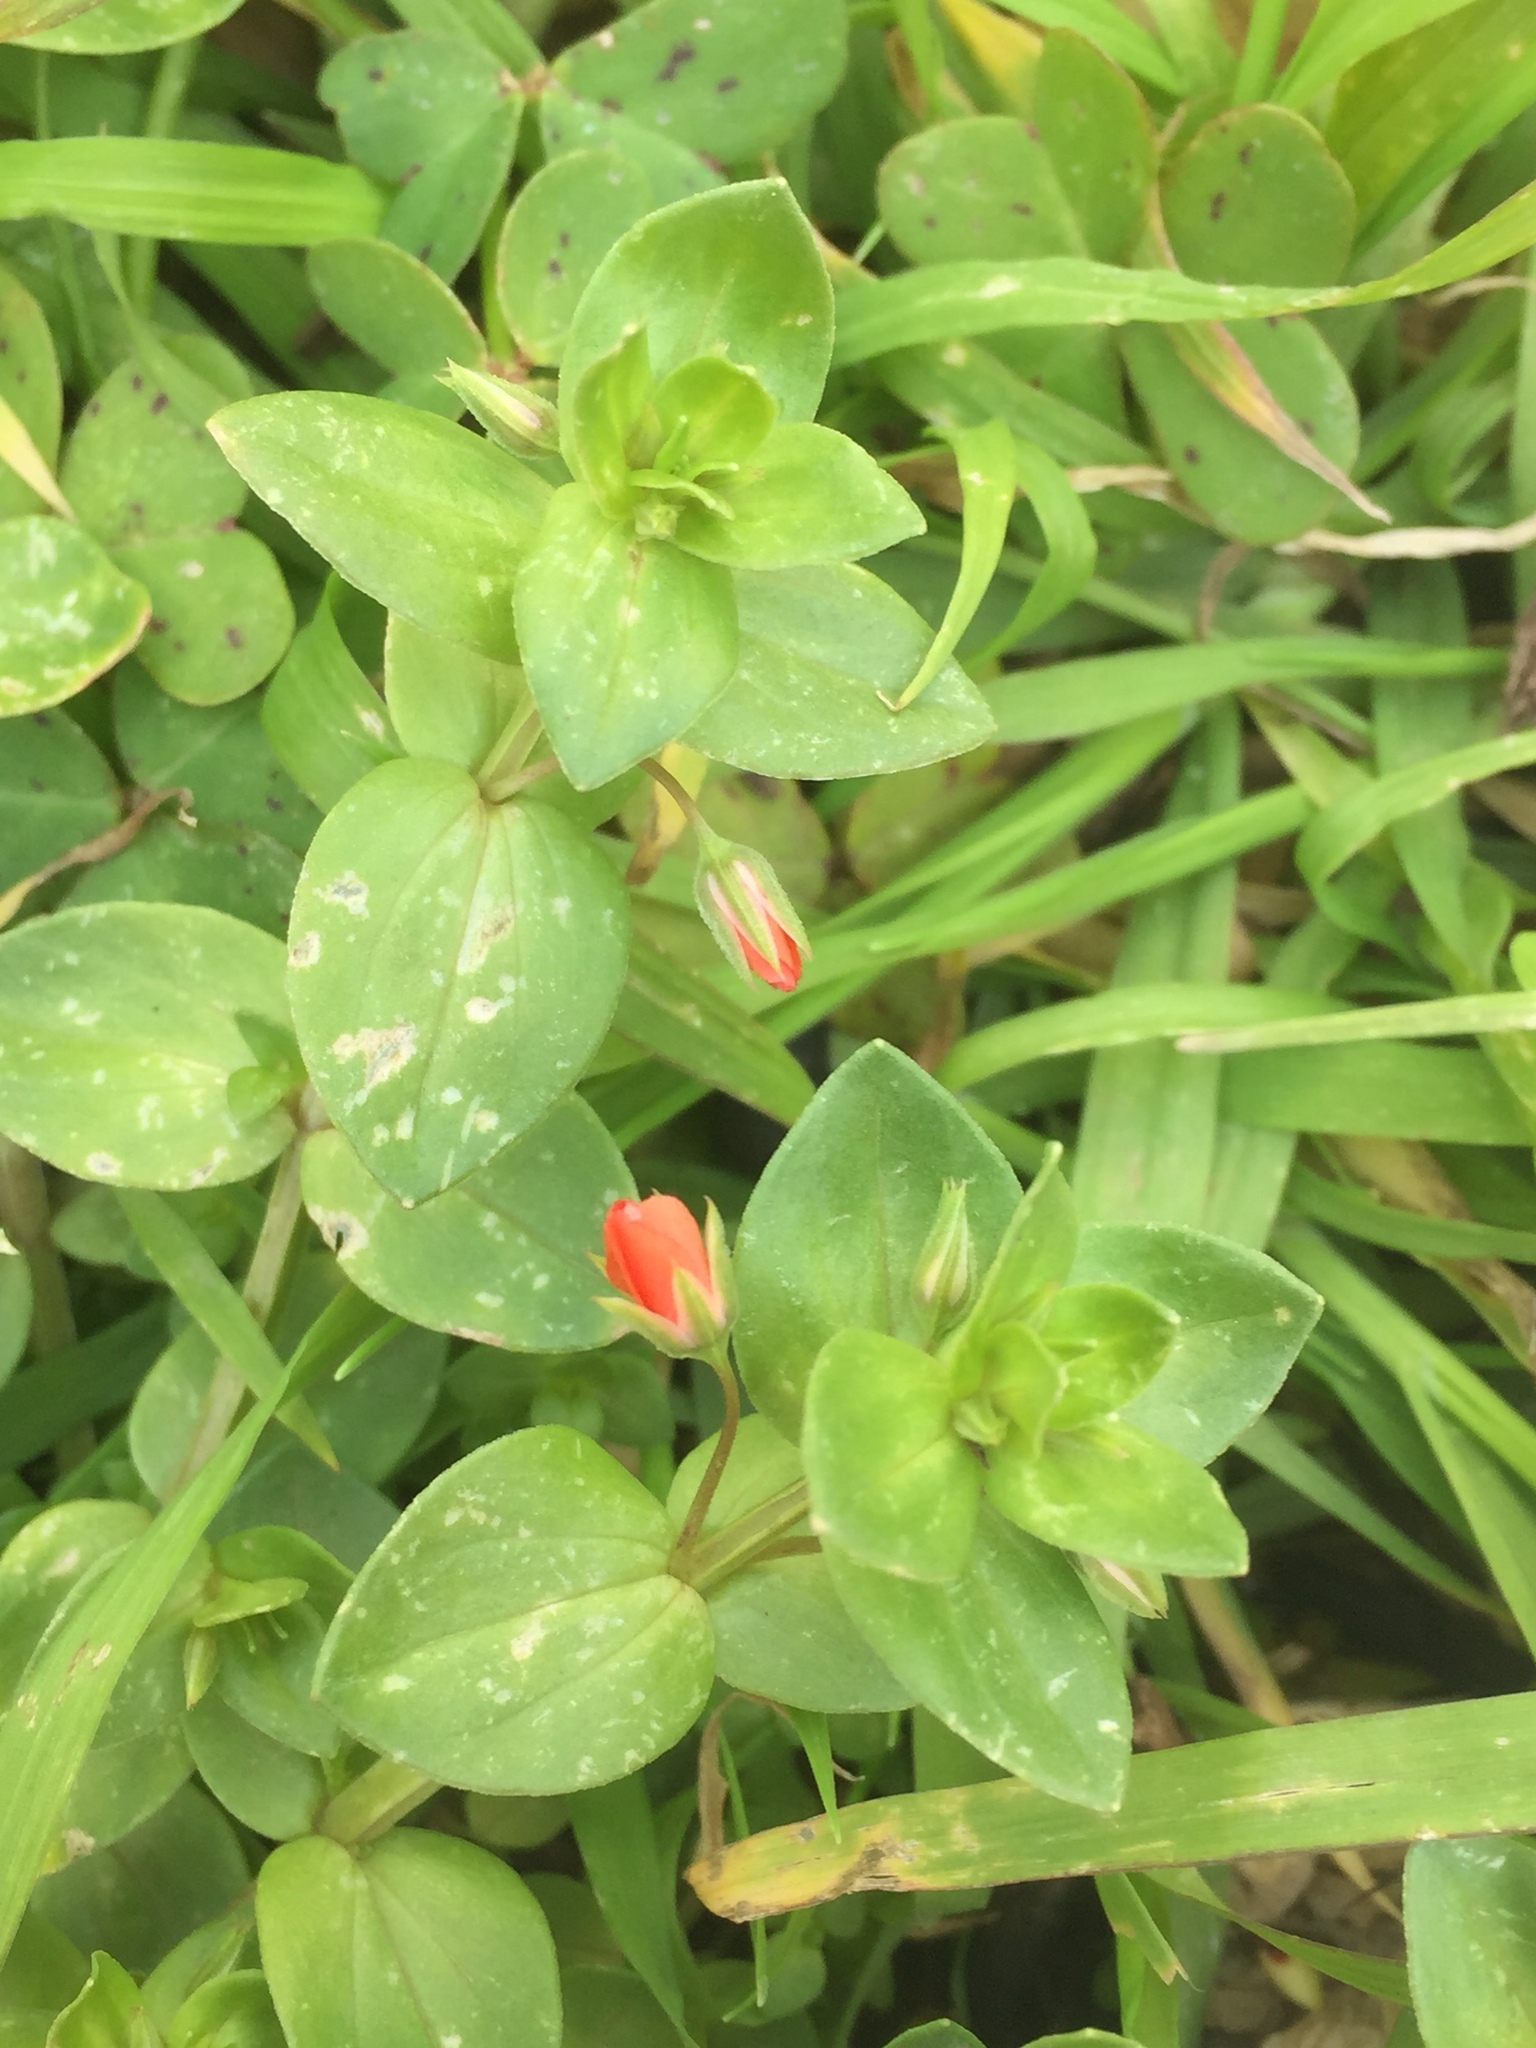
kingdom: Plantae
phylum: Tracheophyta
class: Magnoliopsida
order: Ericales
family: Primulaceae
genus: Lysimachia
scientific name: Lysimachia arvensis
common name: Scarlet pimpernel
